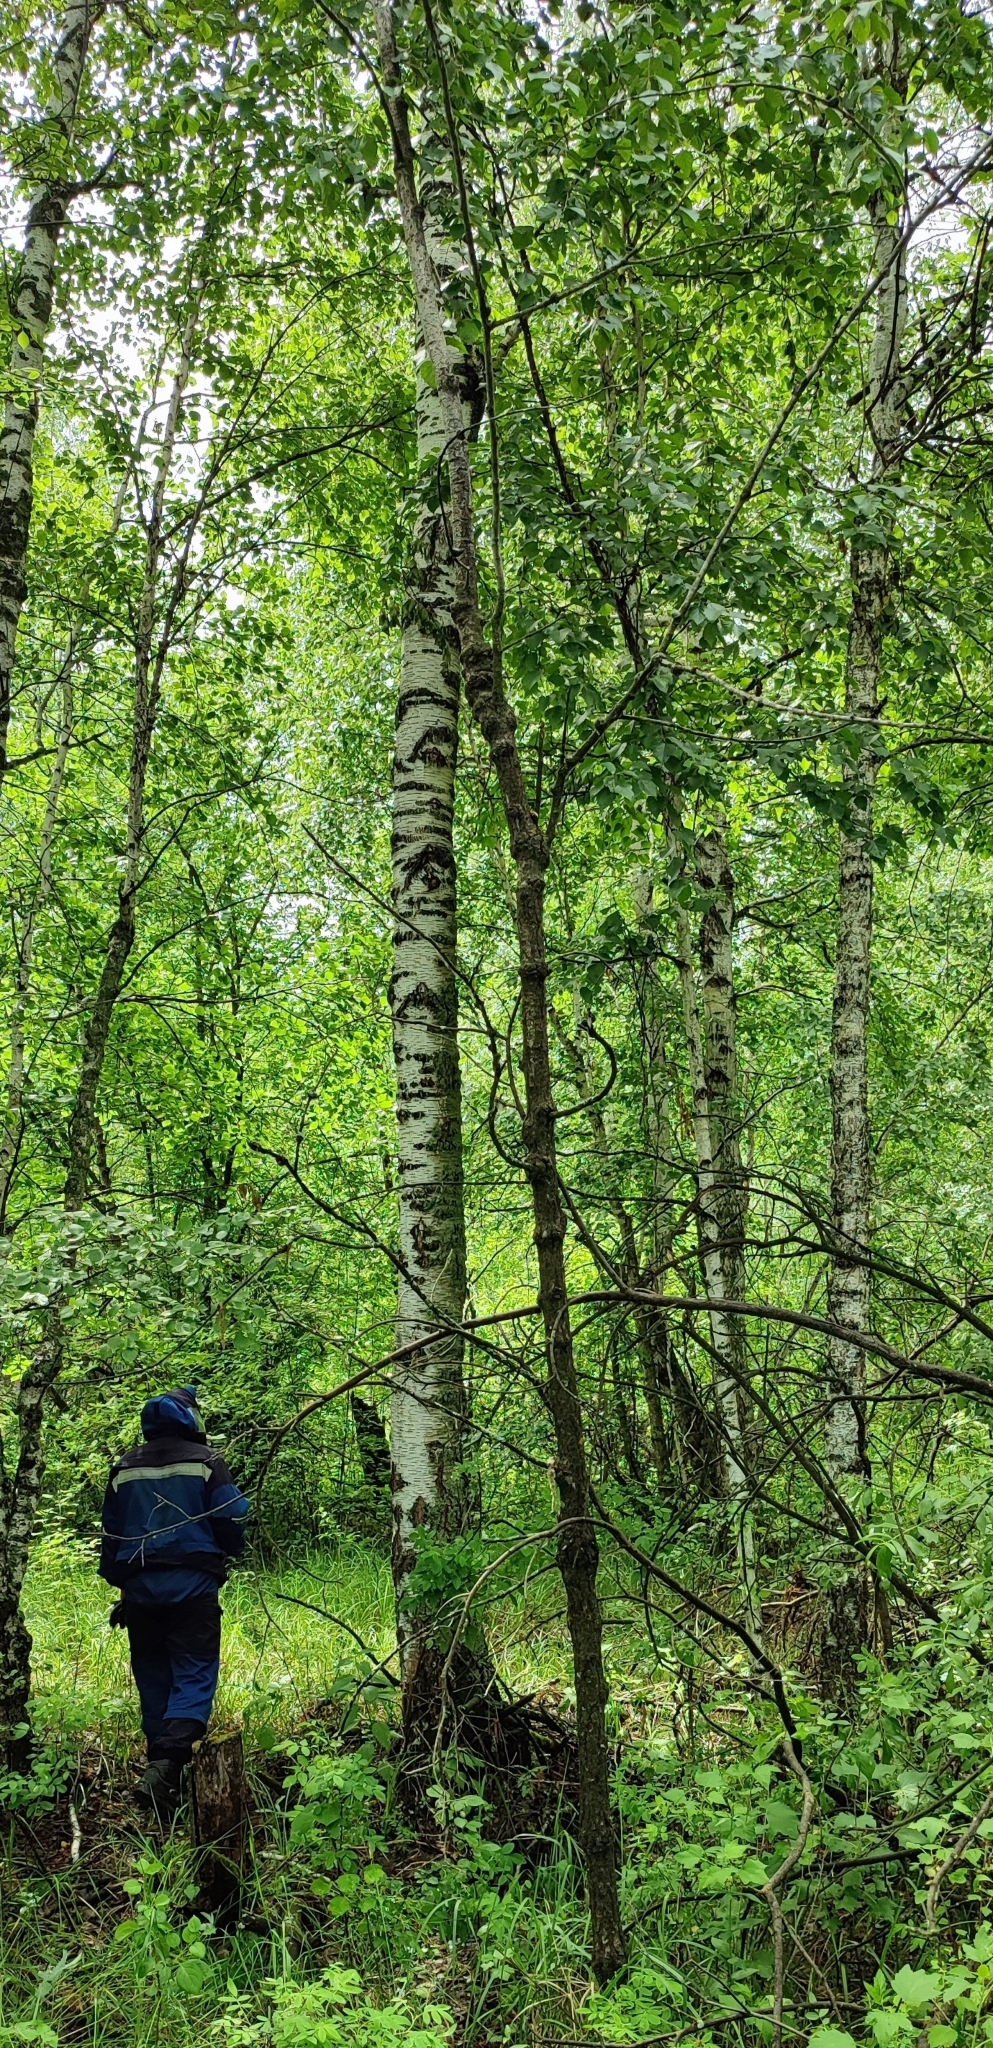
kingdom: Plantae
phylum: Tracheophyta
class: Magnoliopsida
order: Fagales
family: Betulaceae
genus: Betula
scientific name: Betula pendula
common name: Silver birch
